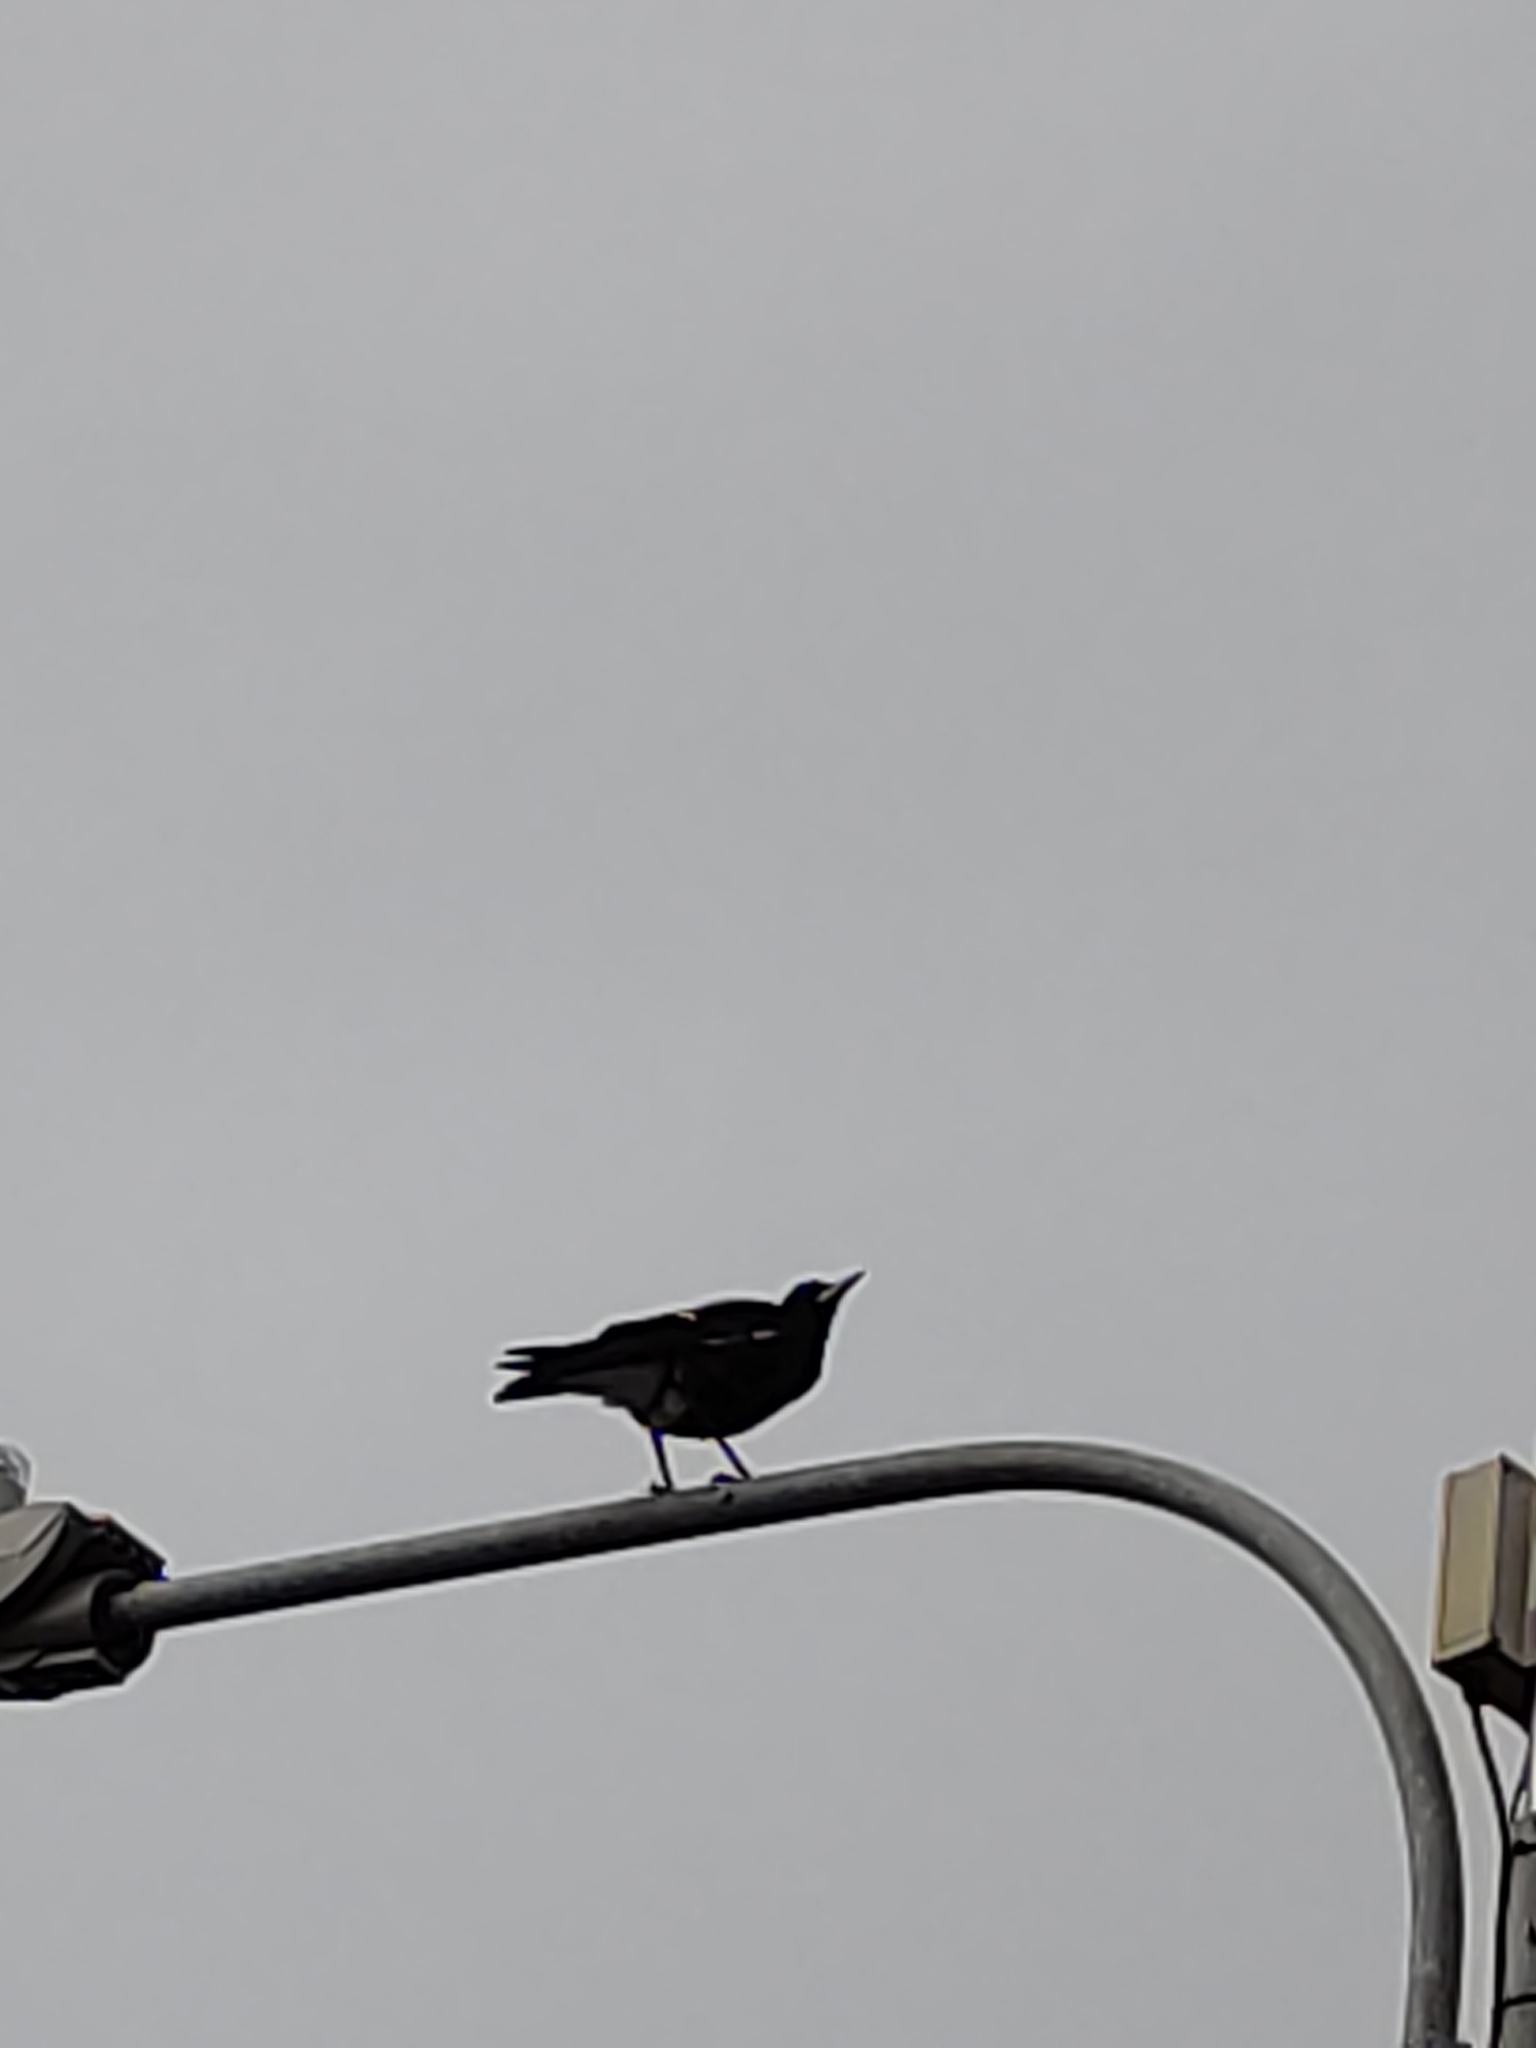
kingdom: Animalia
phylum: Chordata
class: Aves
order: Passeriformes
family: Cracticidae
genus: Gymnorhina
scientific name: Gymnorhina tibicen
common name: Australian magpie
